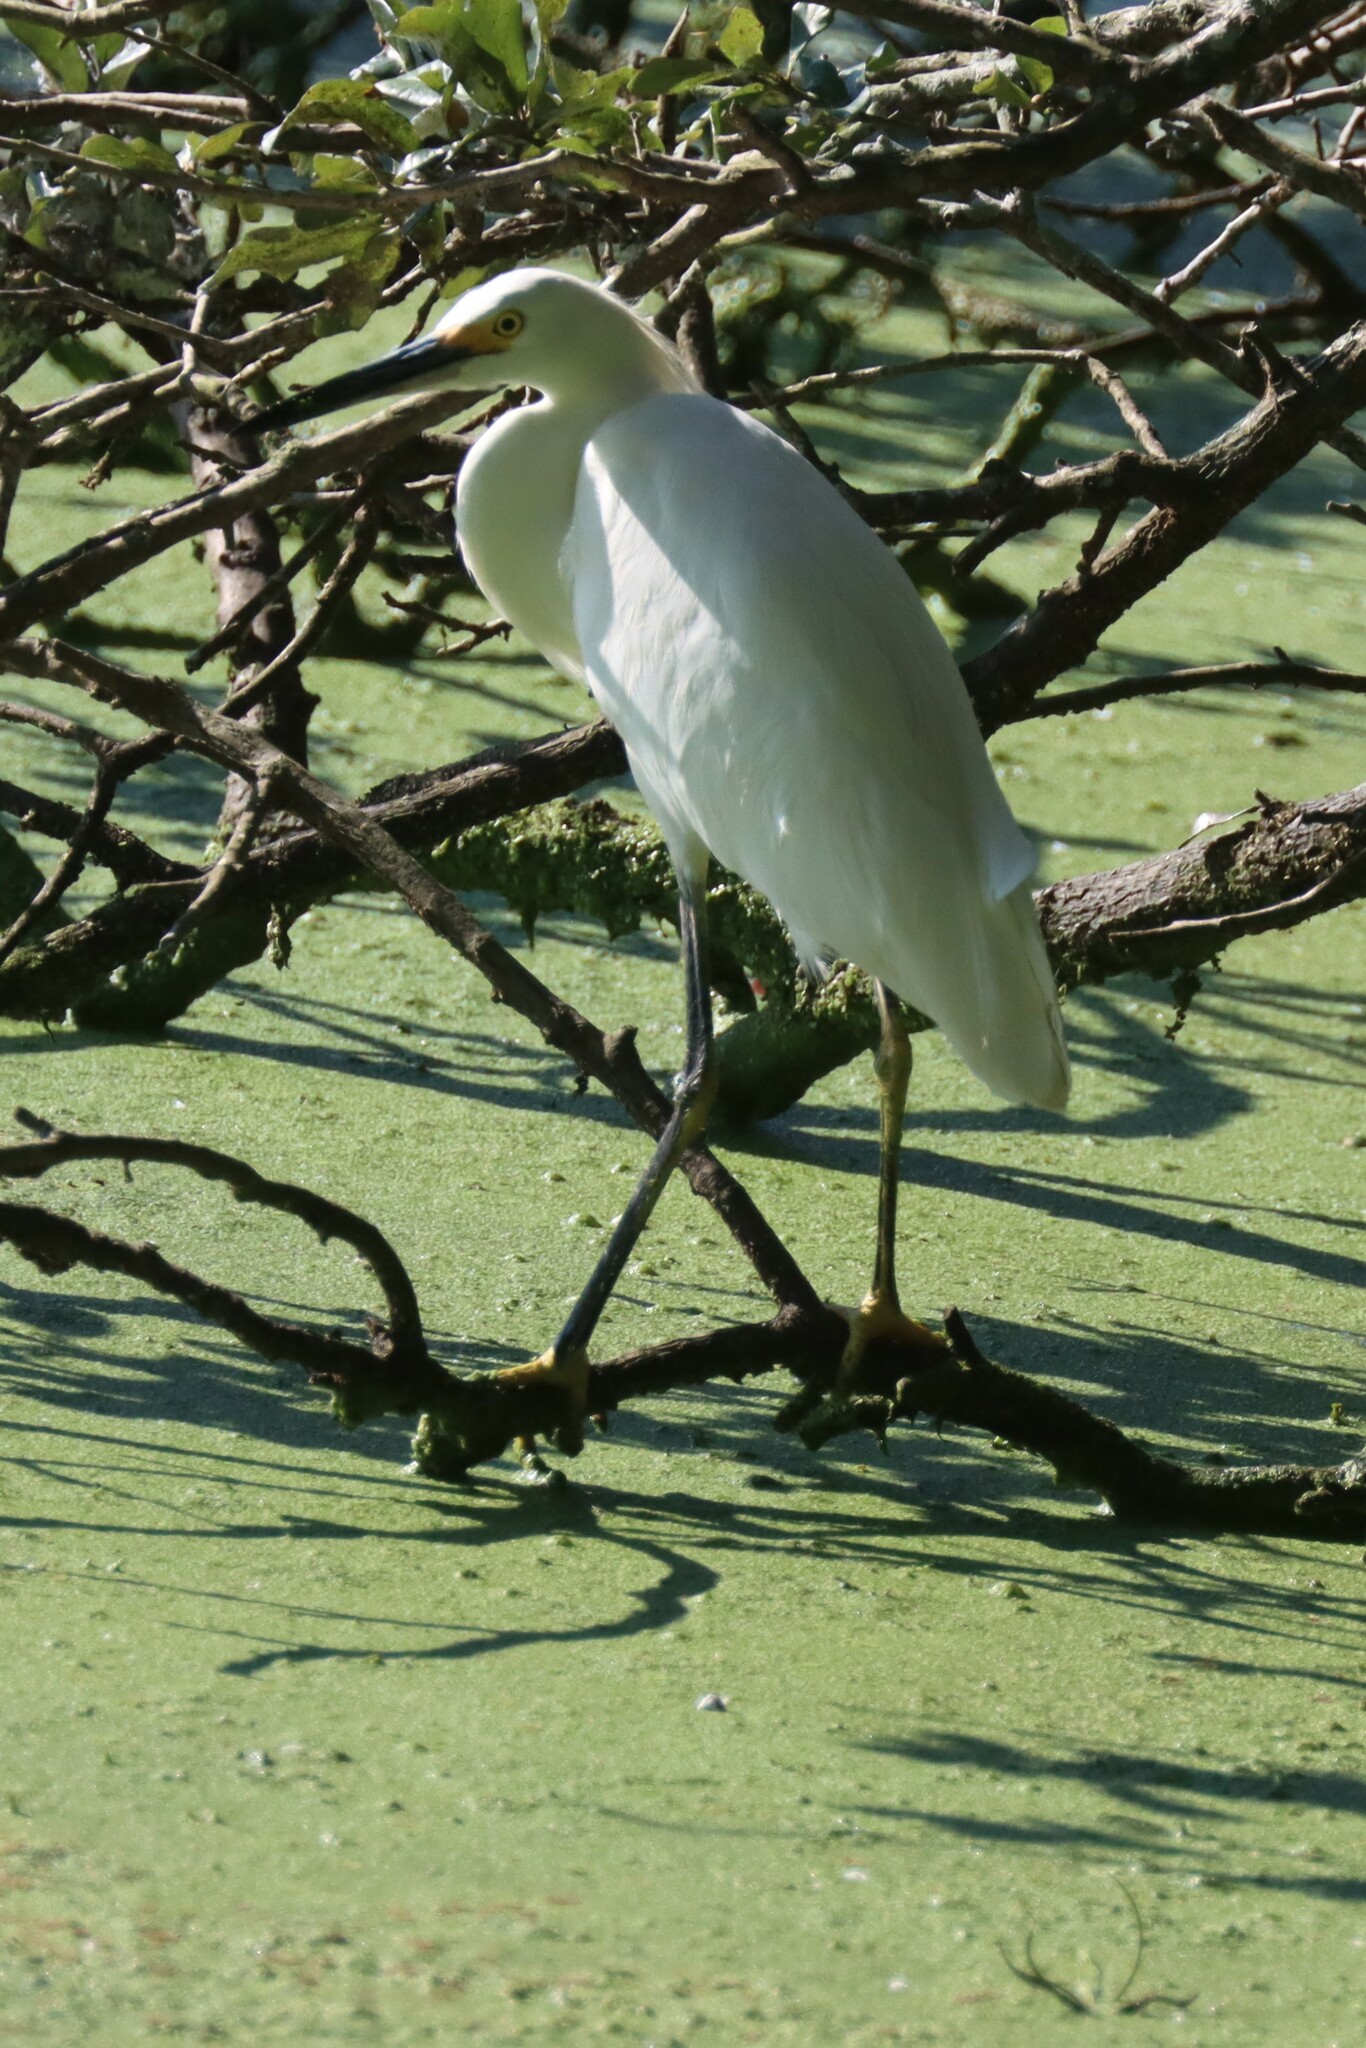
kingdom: Animalia
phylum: Chordata
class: Aves
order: Pelecaniformes
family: Ardeidae
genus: Egretta
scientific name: Egretta thula
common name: Snowy egret
